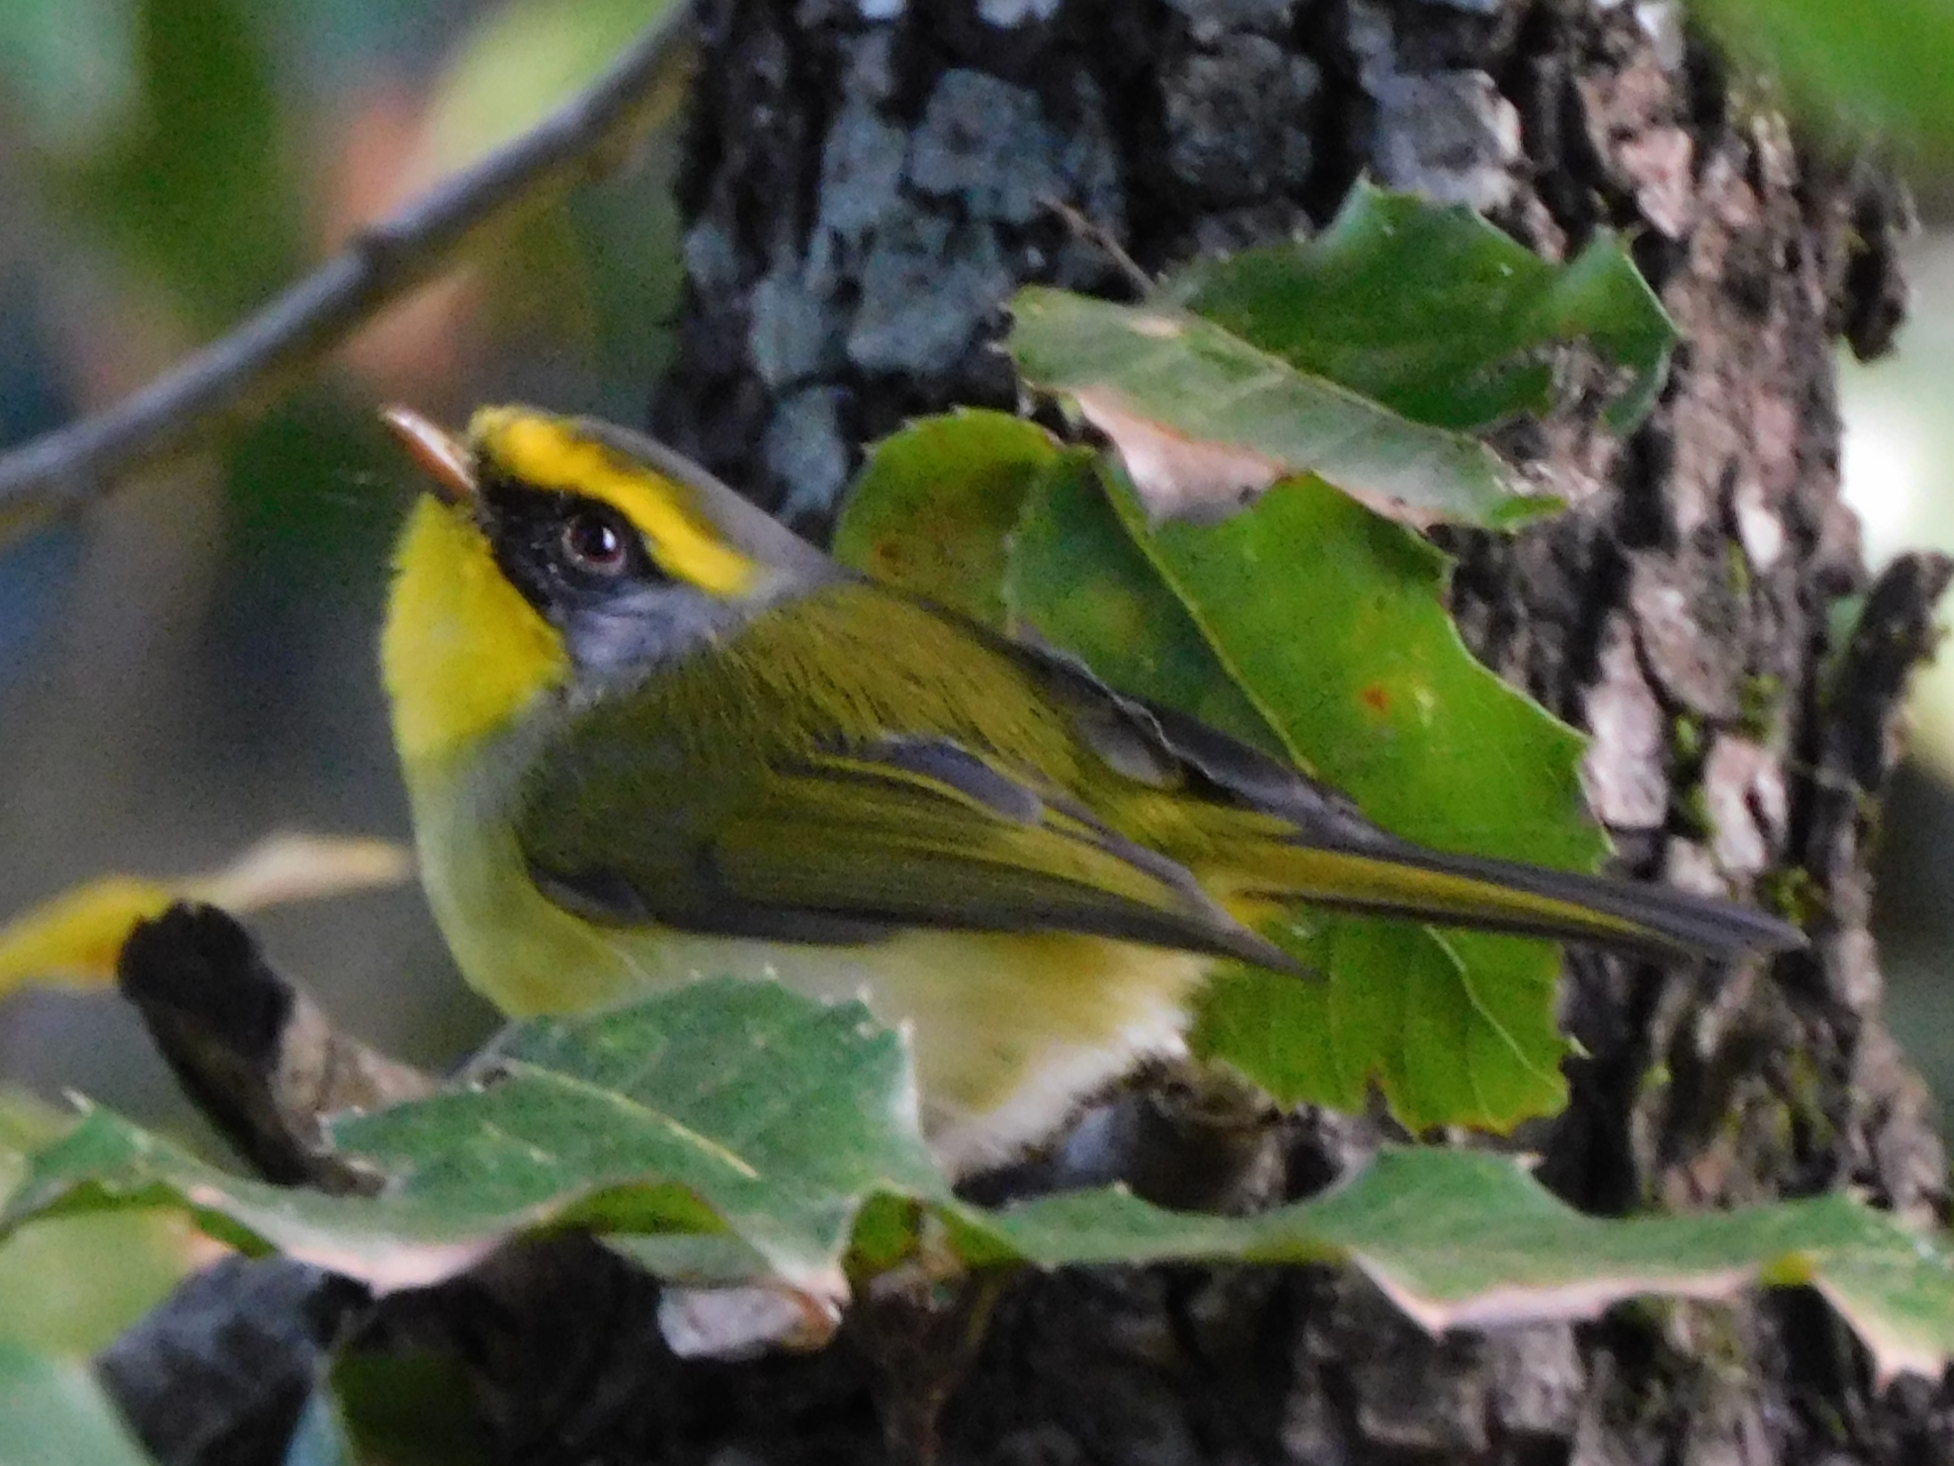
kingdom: Animalia
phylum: Chordata
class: Aves
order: Passeriformes
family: Cettiidae
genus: Abroscopus
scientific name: Abroscopus schisticeps
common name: Black-faced warbler
